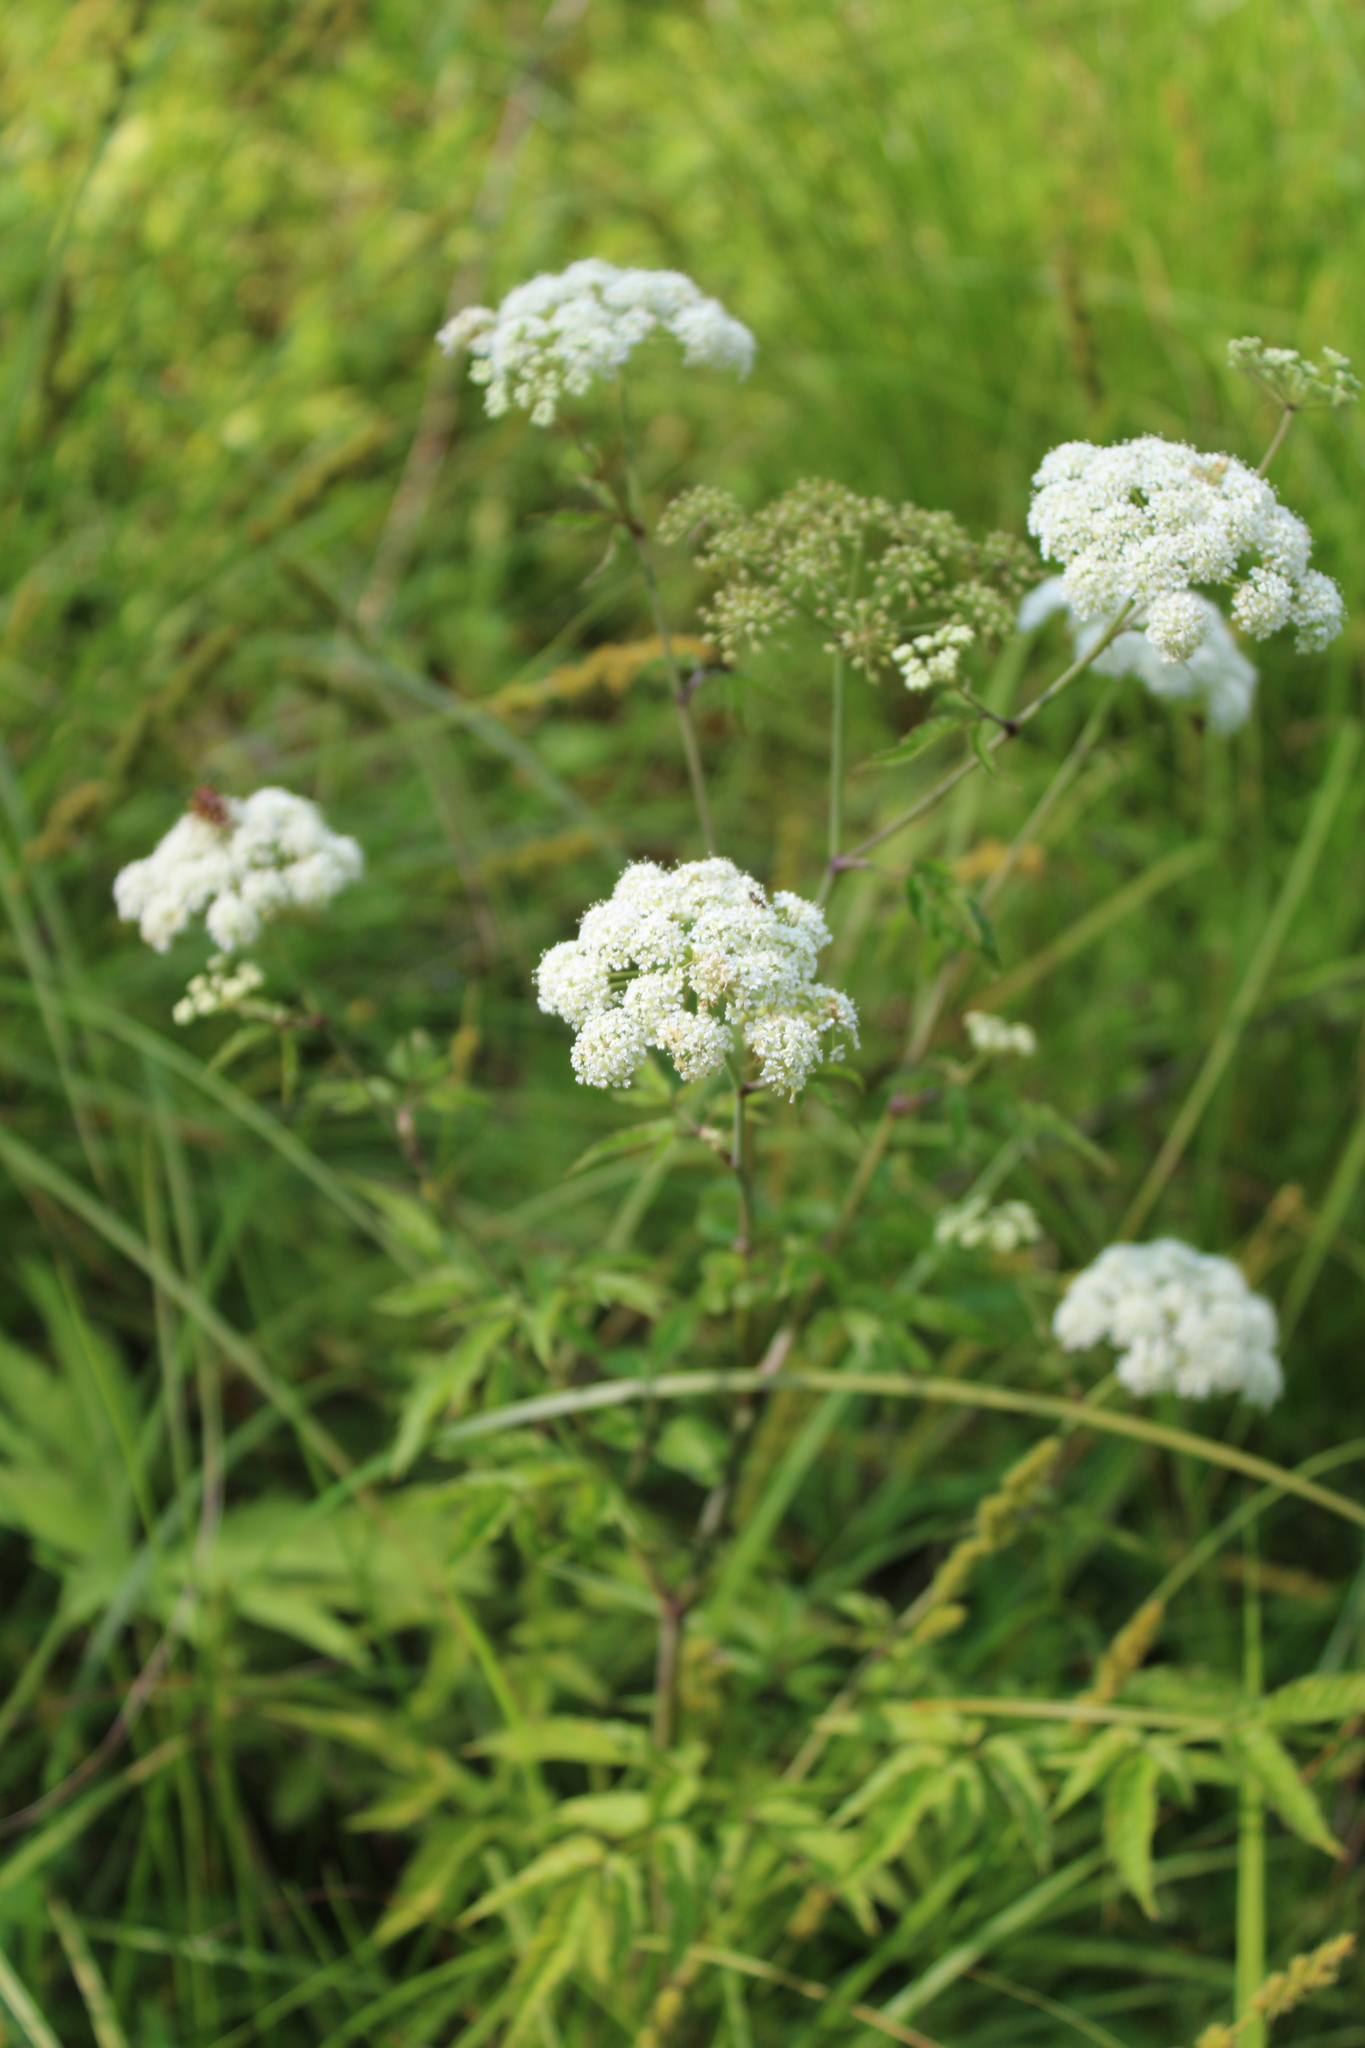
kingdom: Plantae
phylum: Tracheophyta
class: Magnoliopsida
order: Apiales
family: Apiaceae
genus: Cicuta
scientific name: Cicuta maculata
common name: Spotted cowbane
